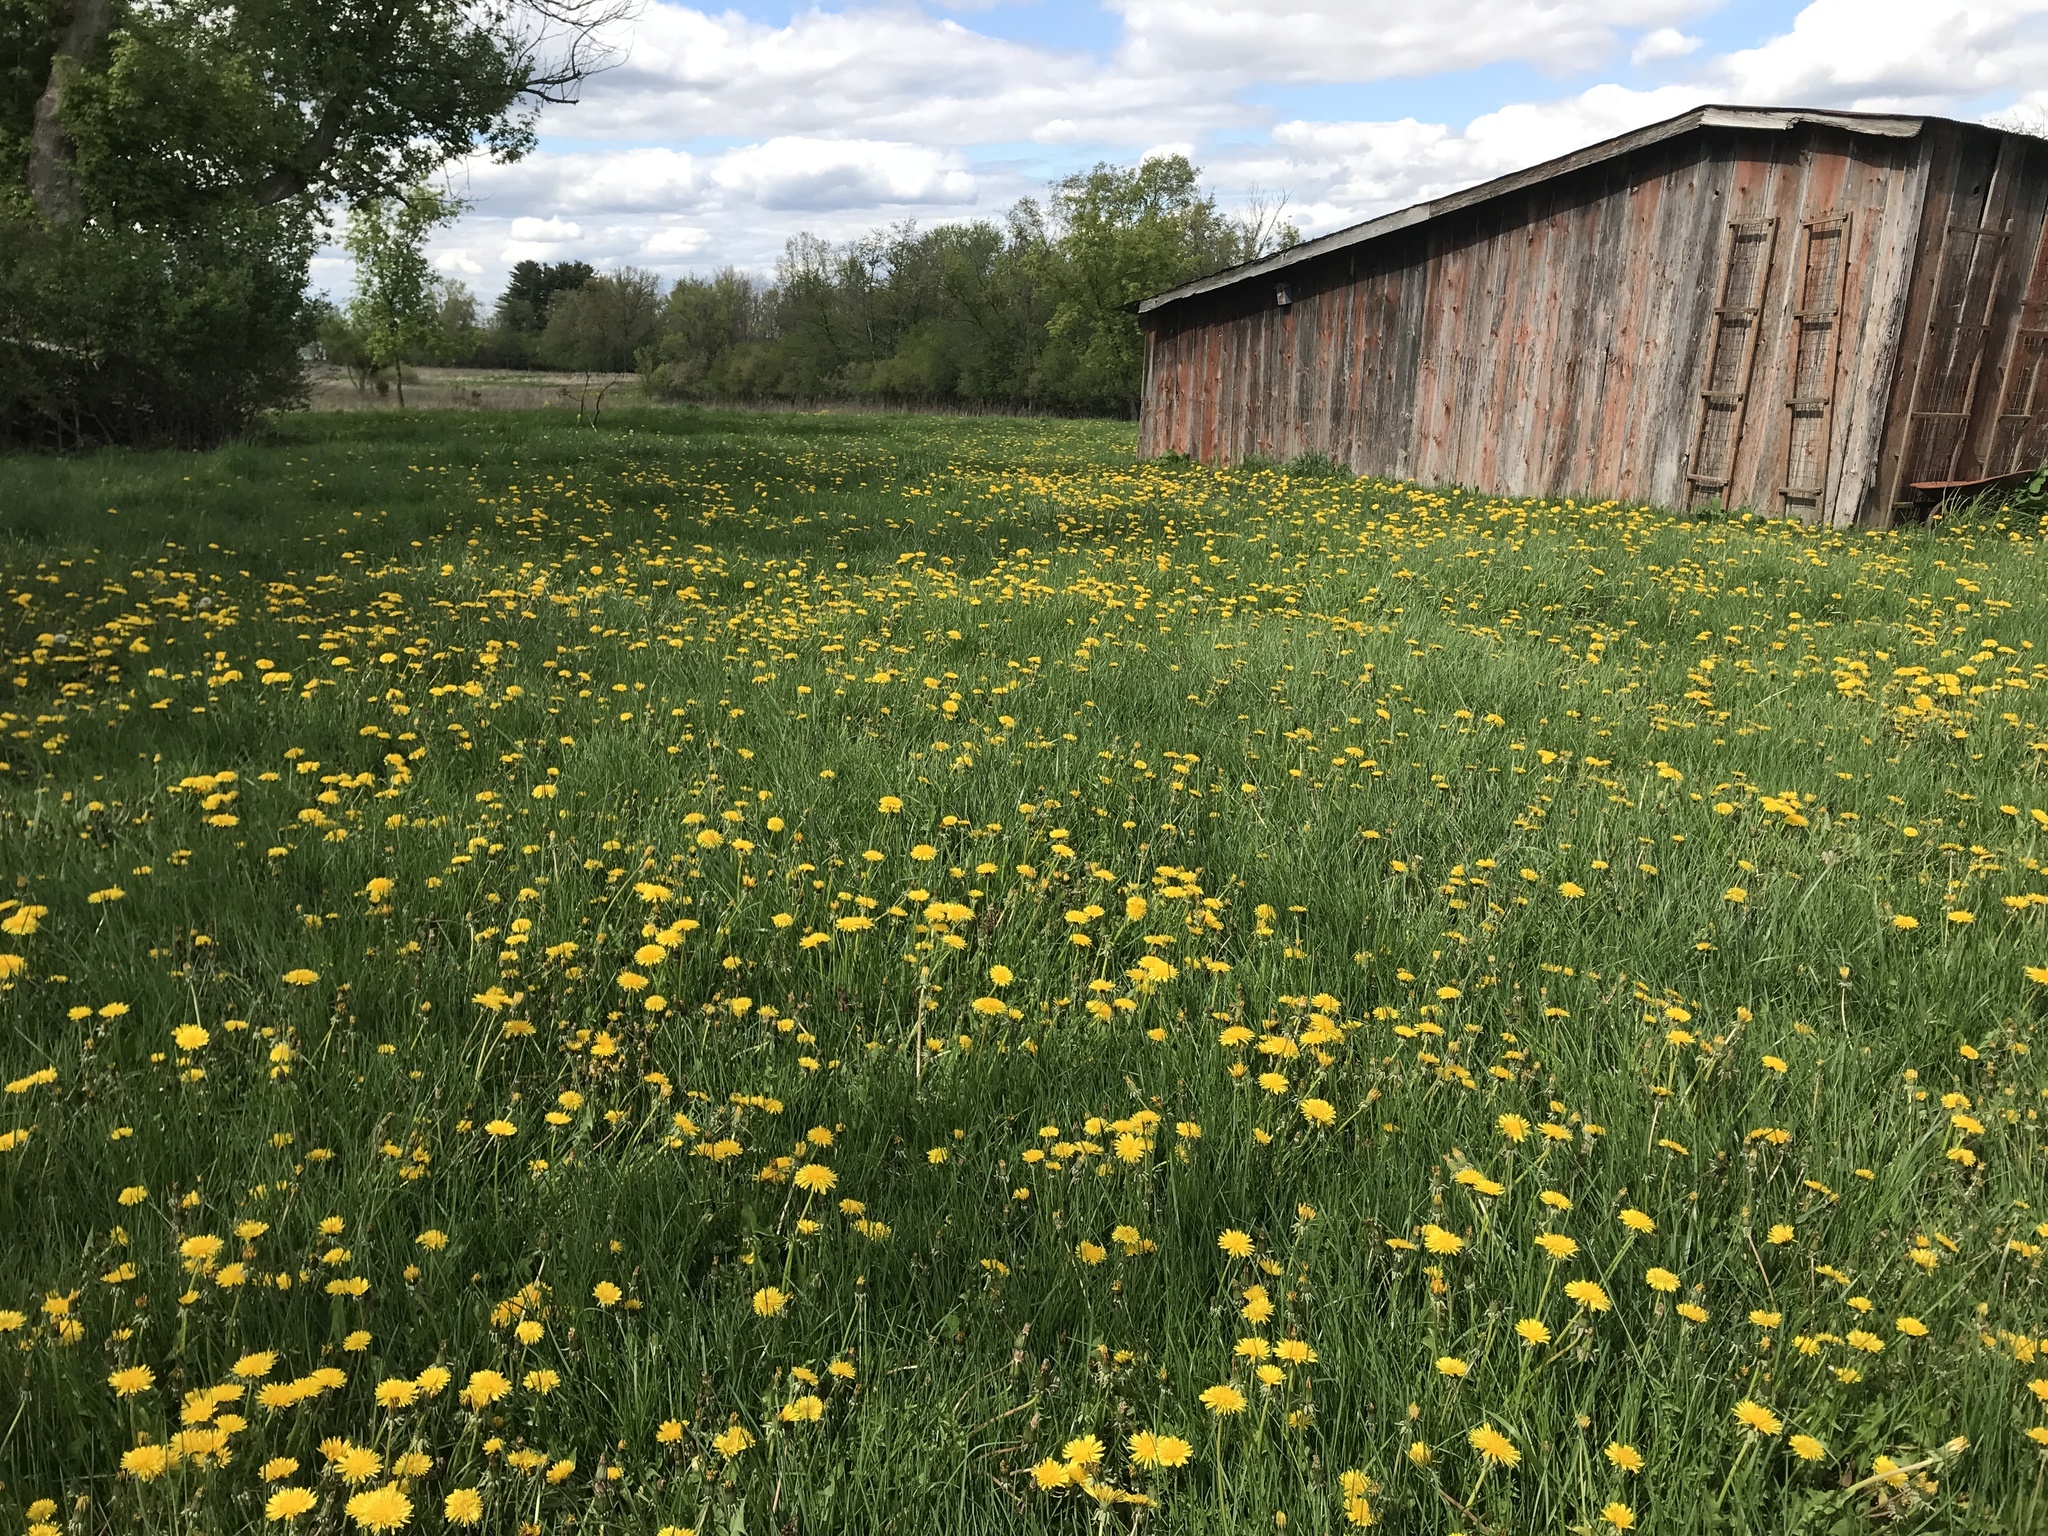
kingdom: Plantae
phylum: Tracheophyta
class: Magnoliopsida
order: Asterales
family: Asteraceae
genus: Taraxacum
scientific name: Taraxacum officinale
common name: Common dandelion
